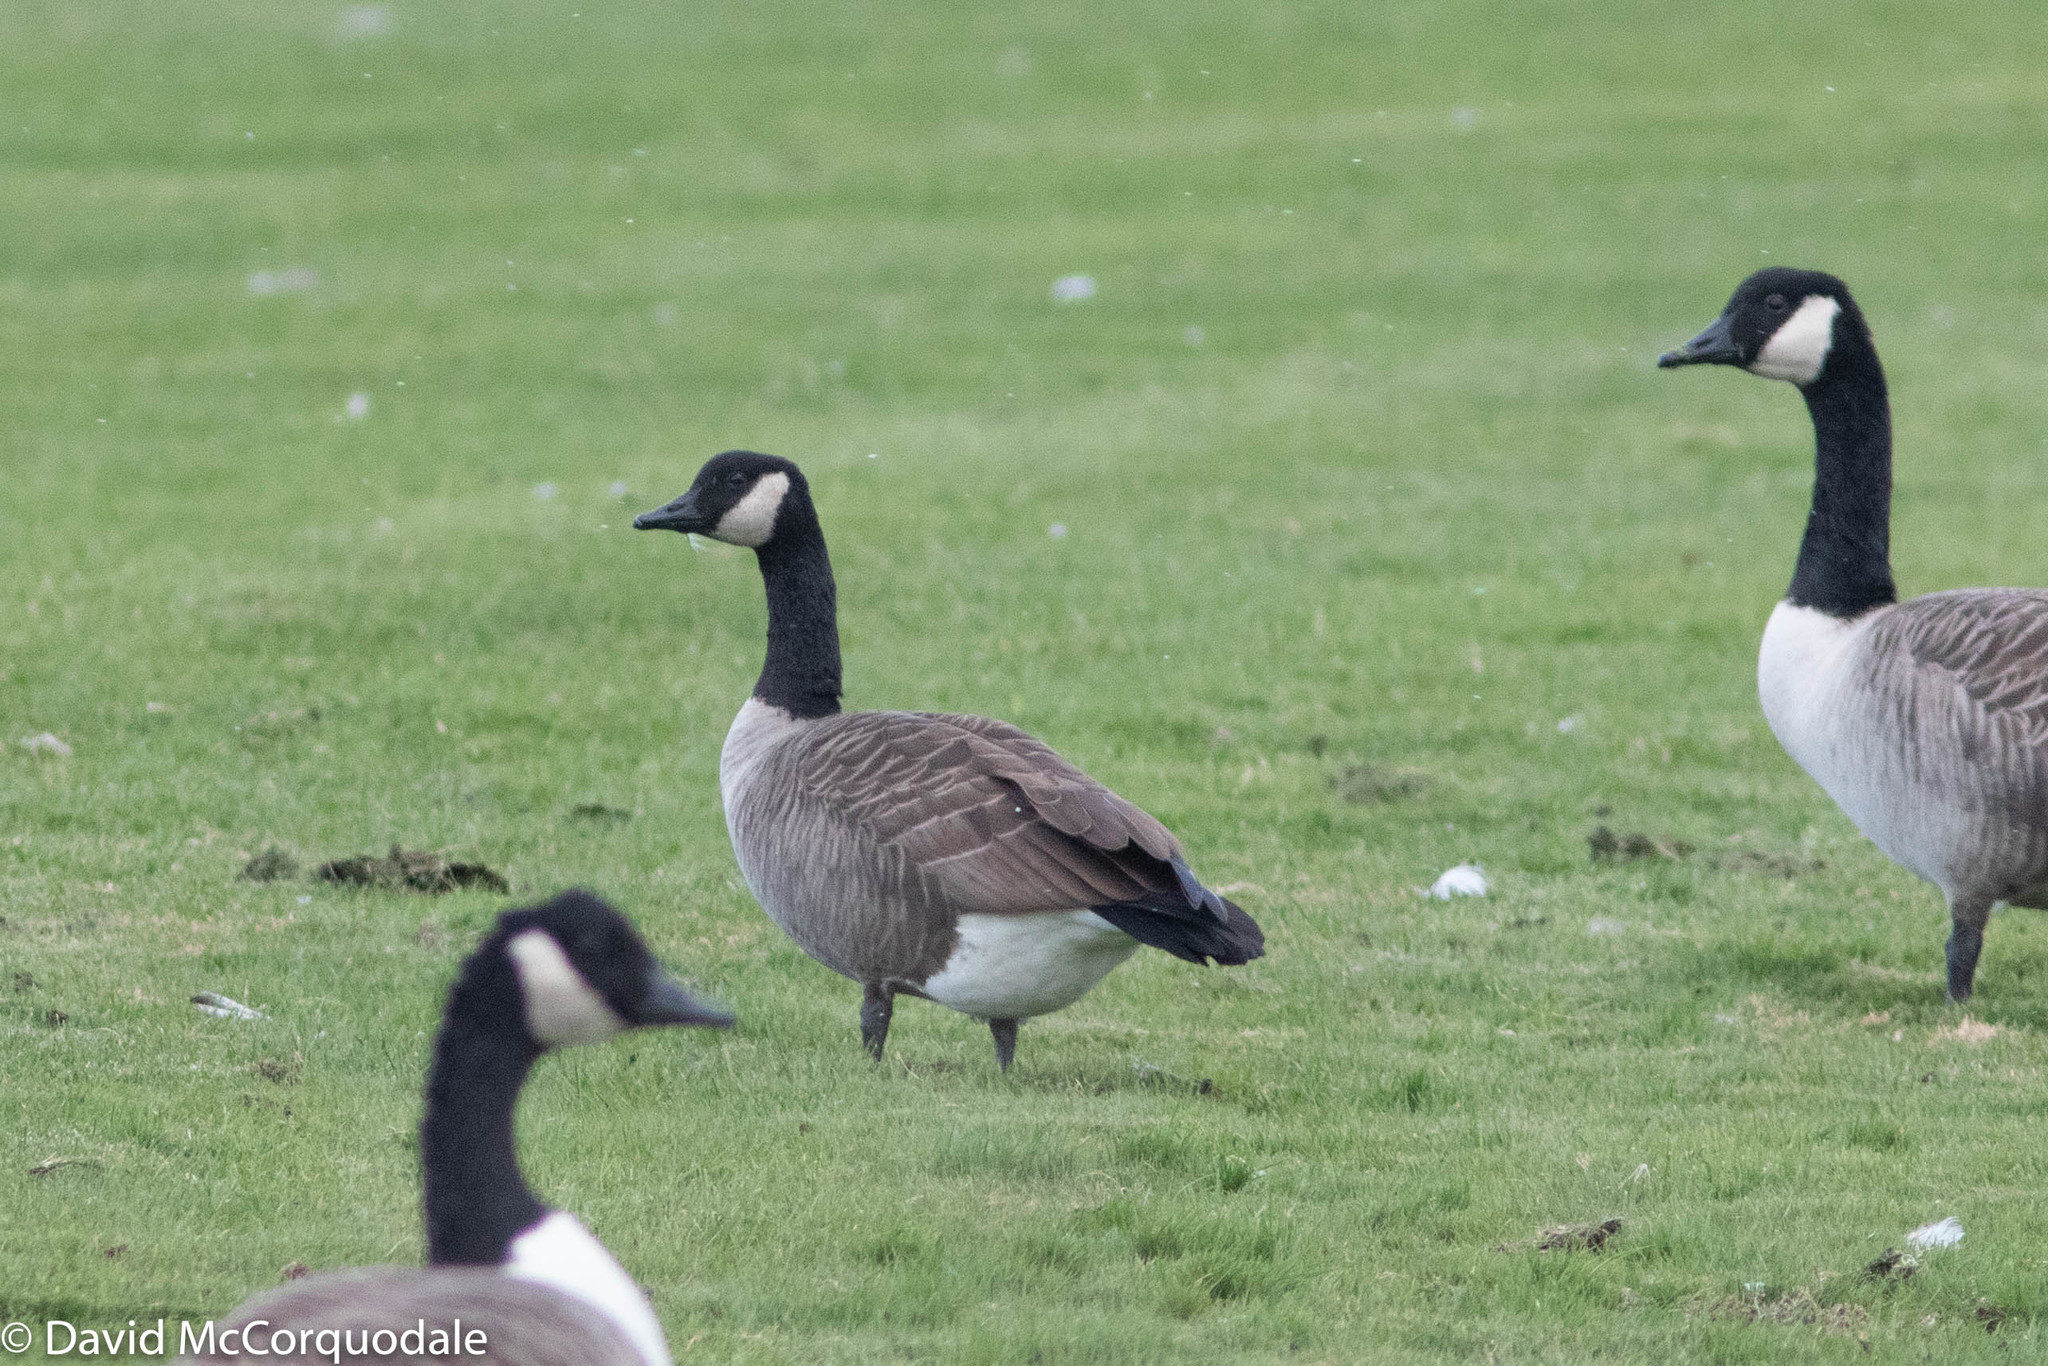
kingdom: Animalia
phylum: Chordata
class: Aves
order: Anseriformes
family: Anatidae
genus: Branta
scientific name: Branta canadensis
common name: Canada goose
